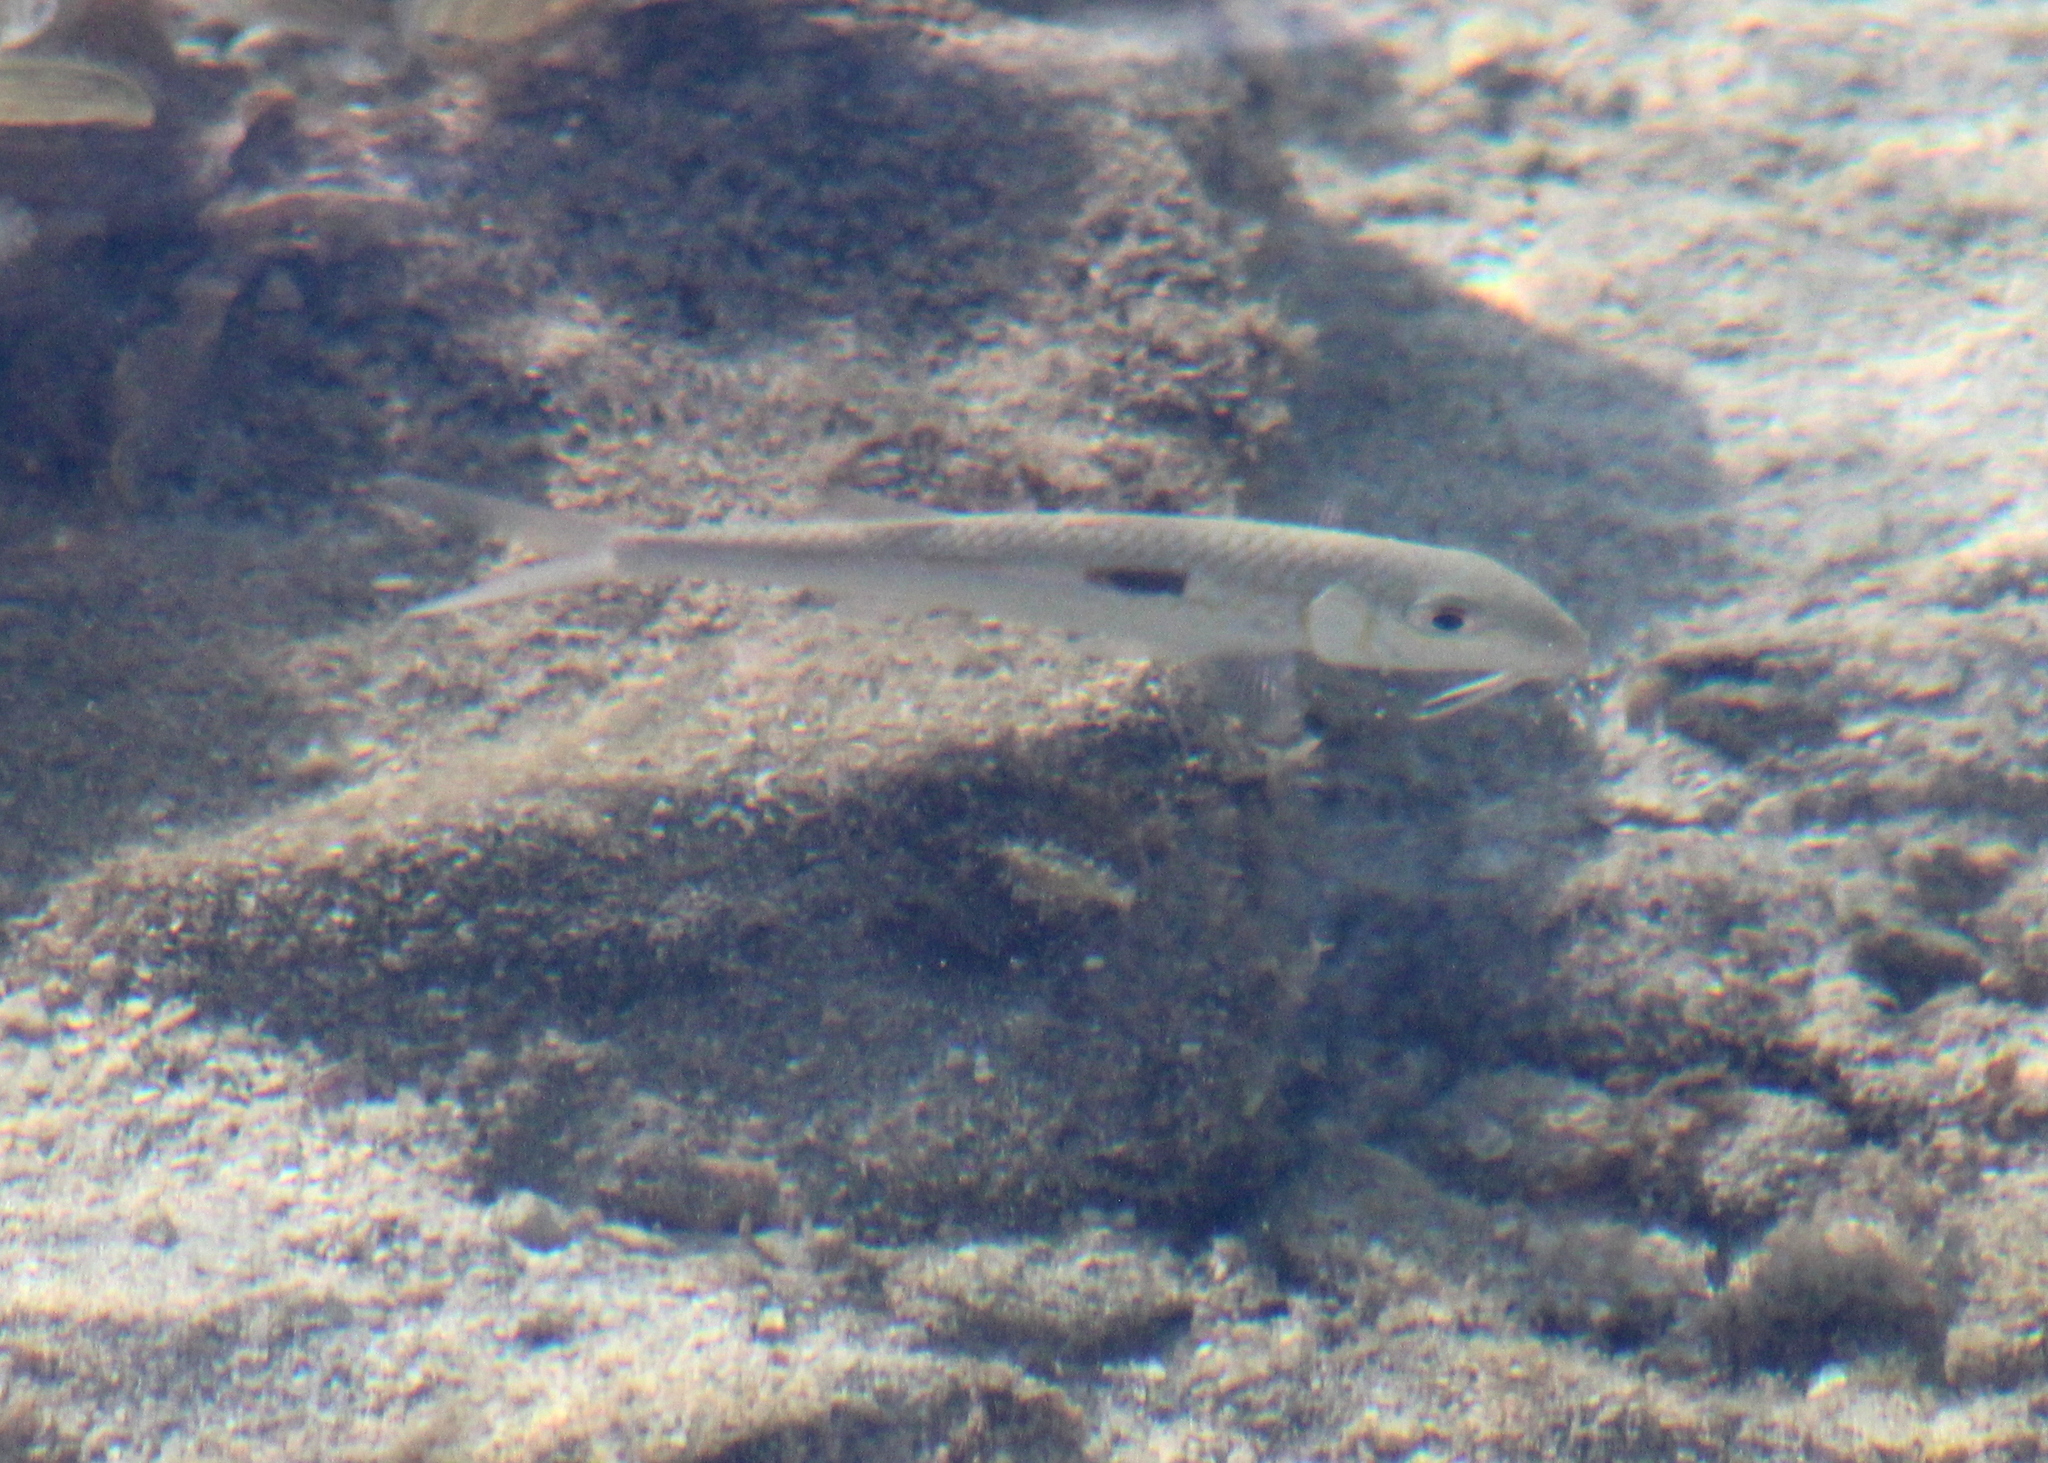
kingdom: Animalia
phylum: Chordata
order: Perciformes
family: Mullidae
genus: Mulloidichthys
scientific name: Mulloidichthys flavolineatus
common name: Yellowstripe goatfish
